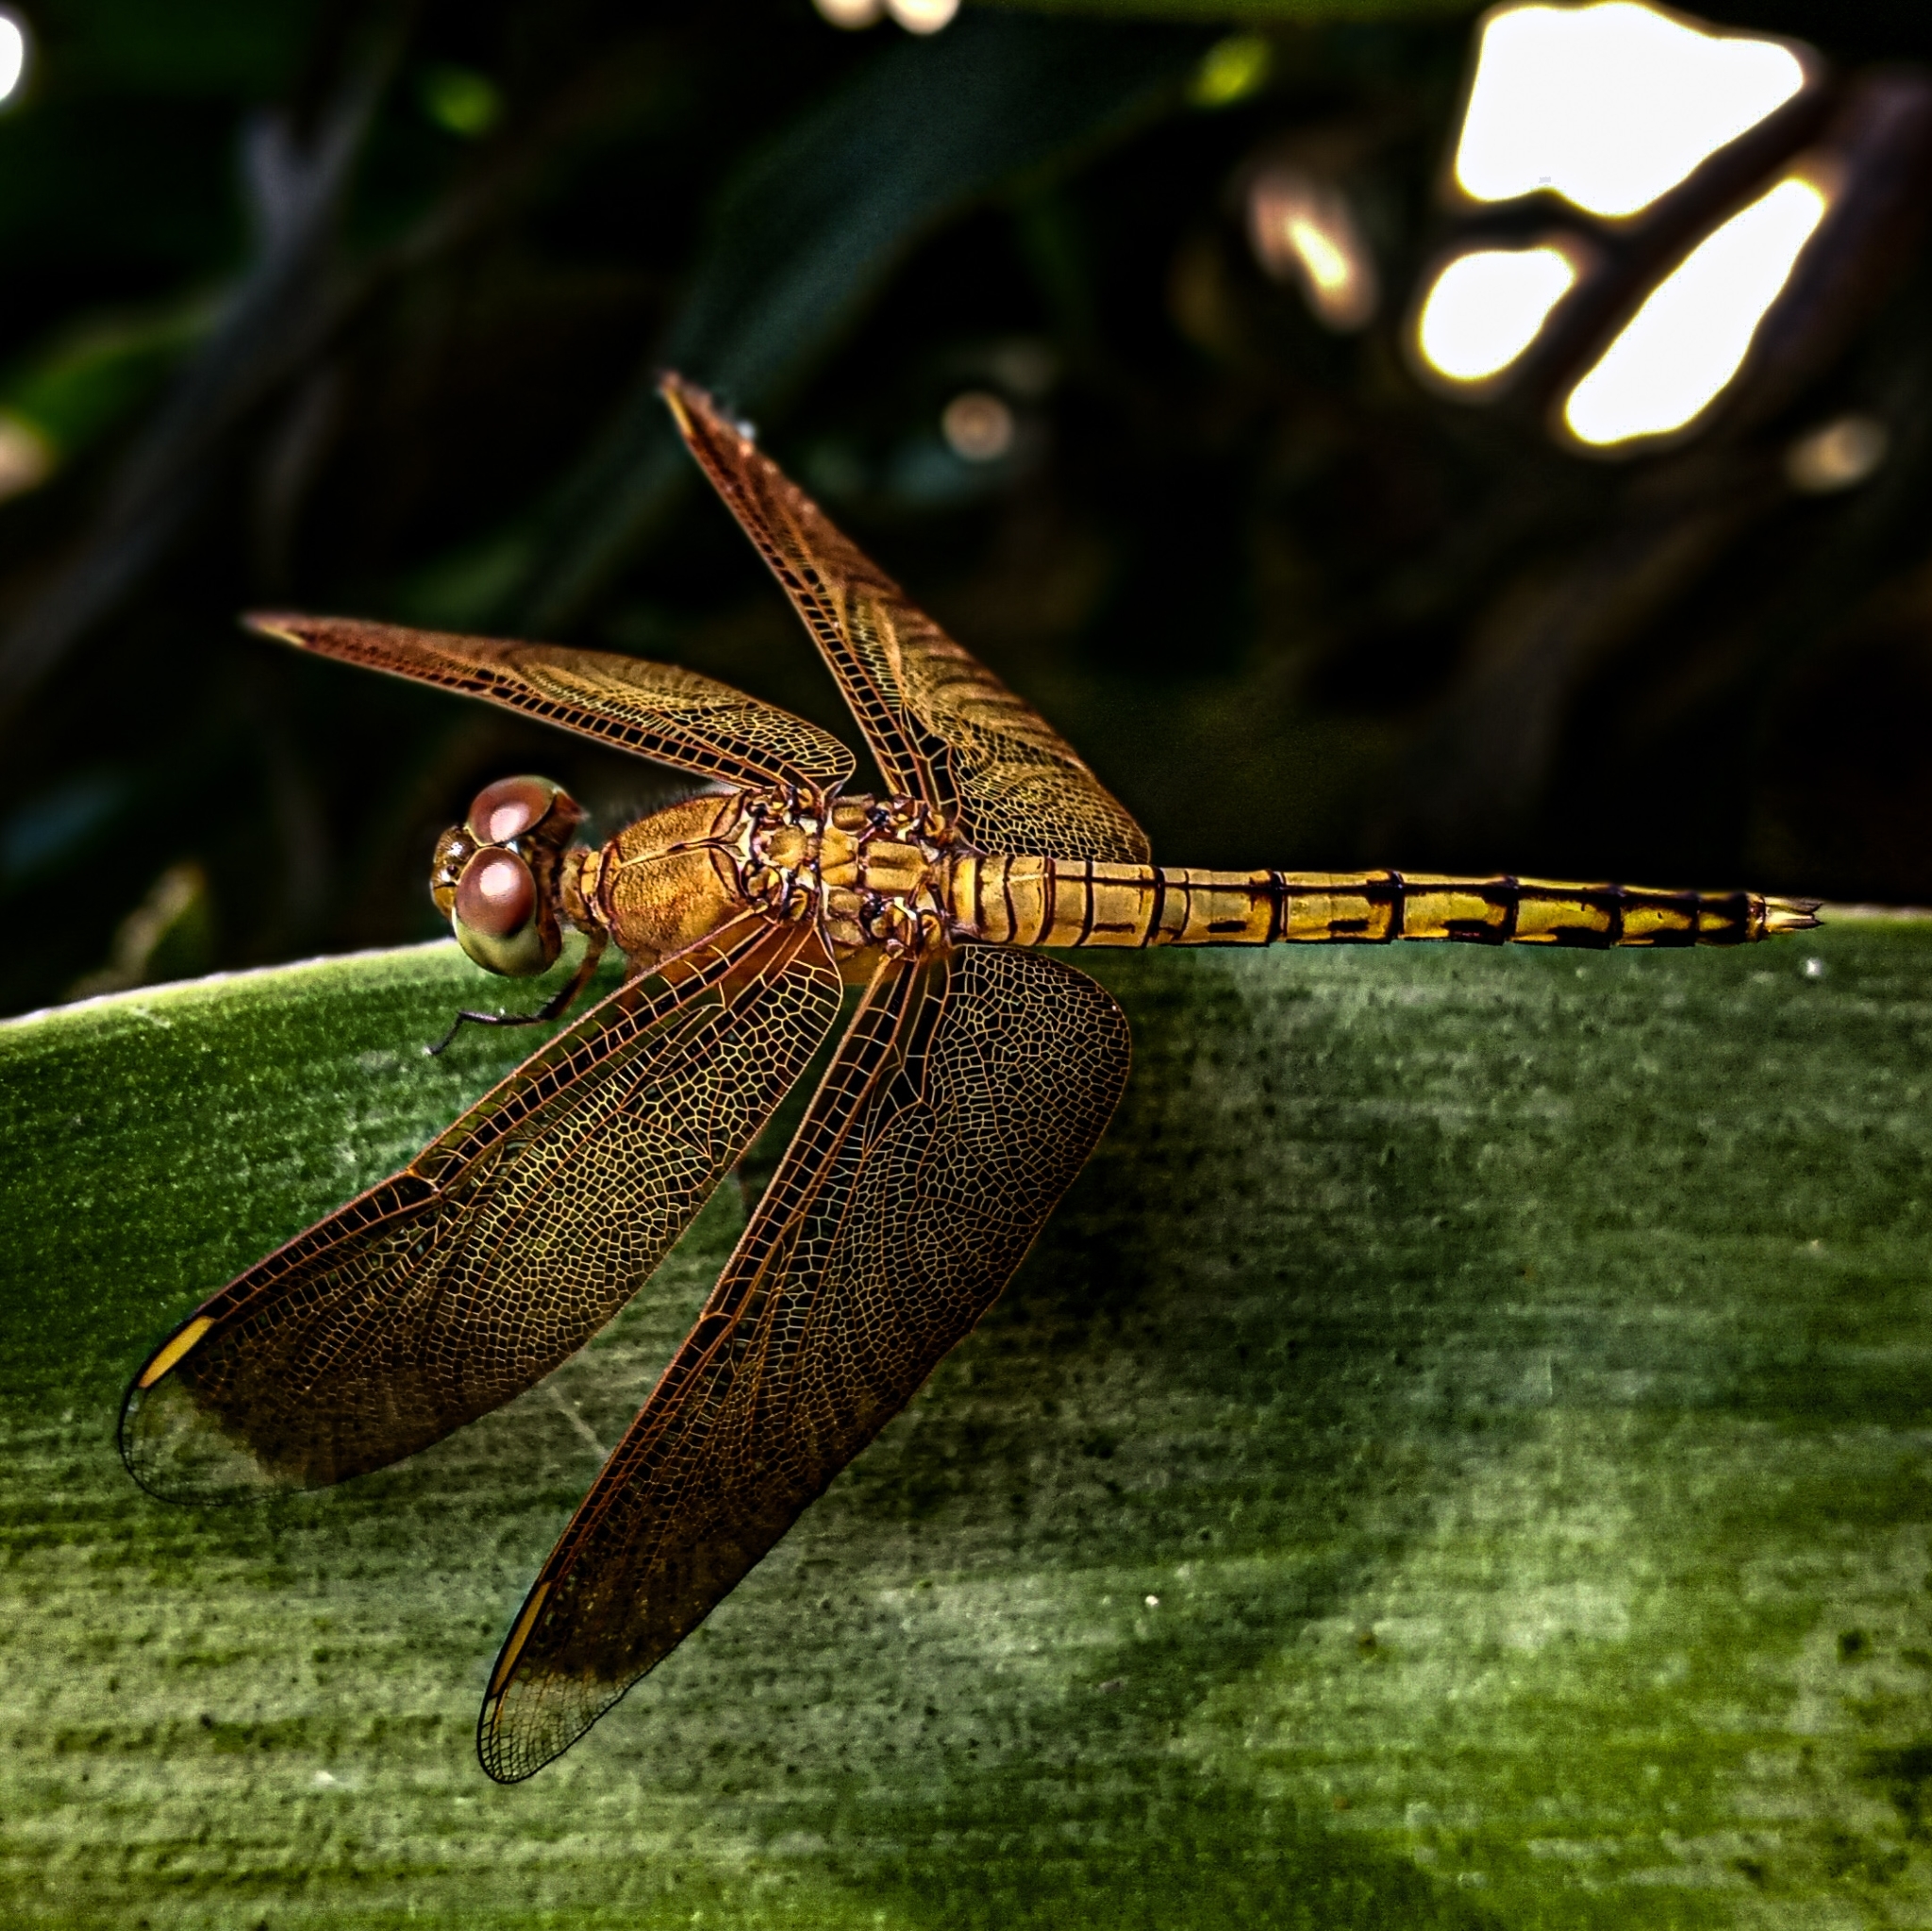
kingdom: Animalia
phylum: Arthropoda
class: Insecta
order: Odonata
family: Libellulidae
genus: Neurothemis
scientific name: Neurothemis terminata
